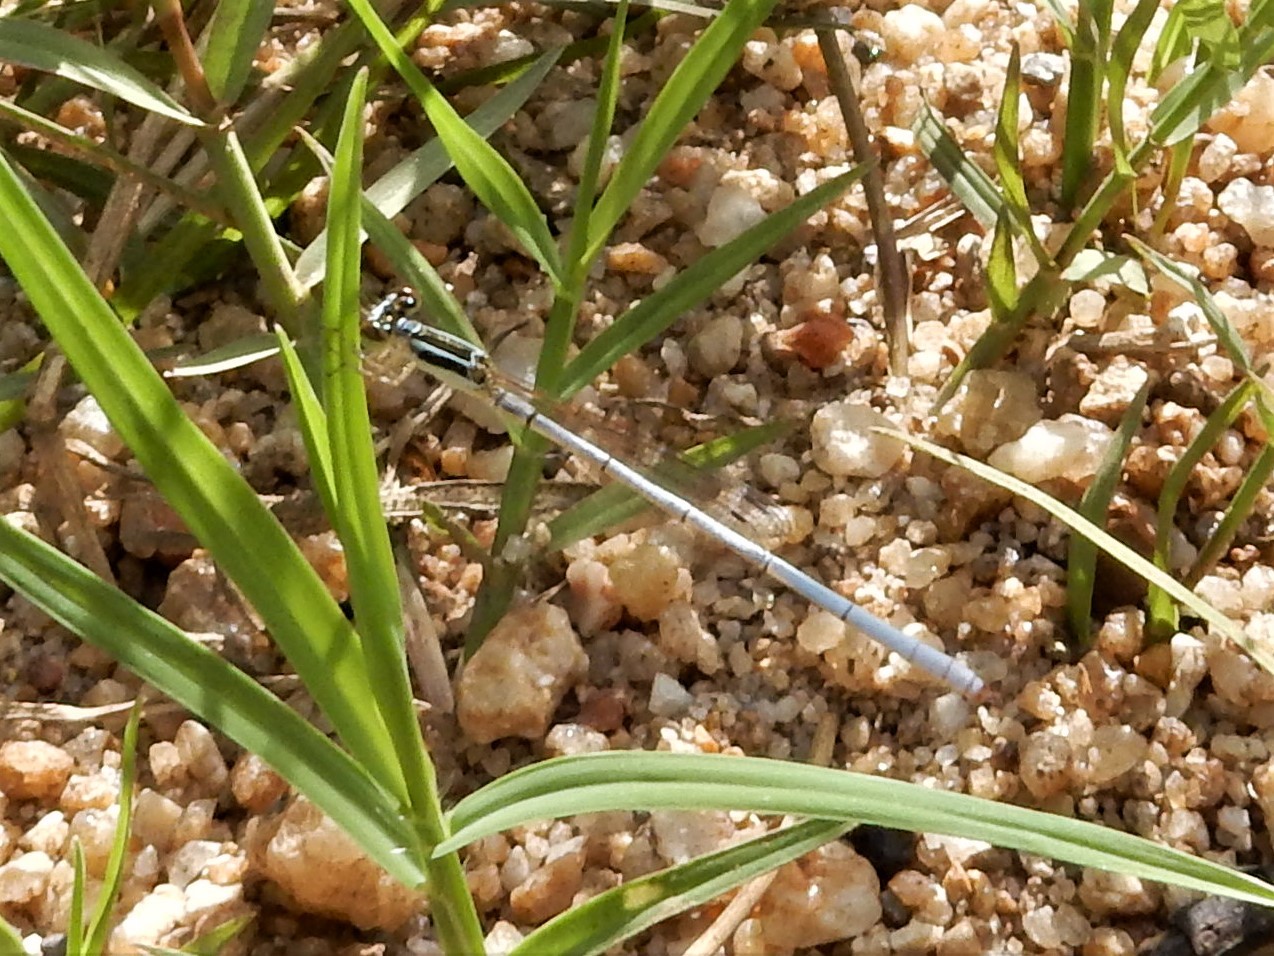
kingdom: Animalia
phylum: Arthropoda
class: Insecta
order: Odonata
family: Coenagrionidae
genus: Agriocnemis
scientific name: Agriocnemis argentea
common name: Silver wisp
